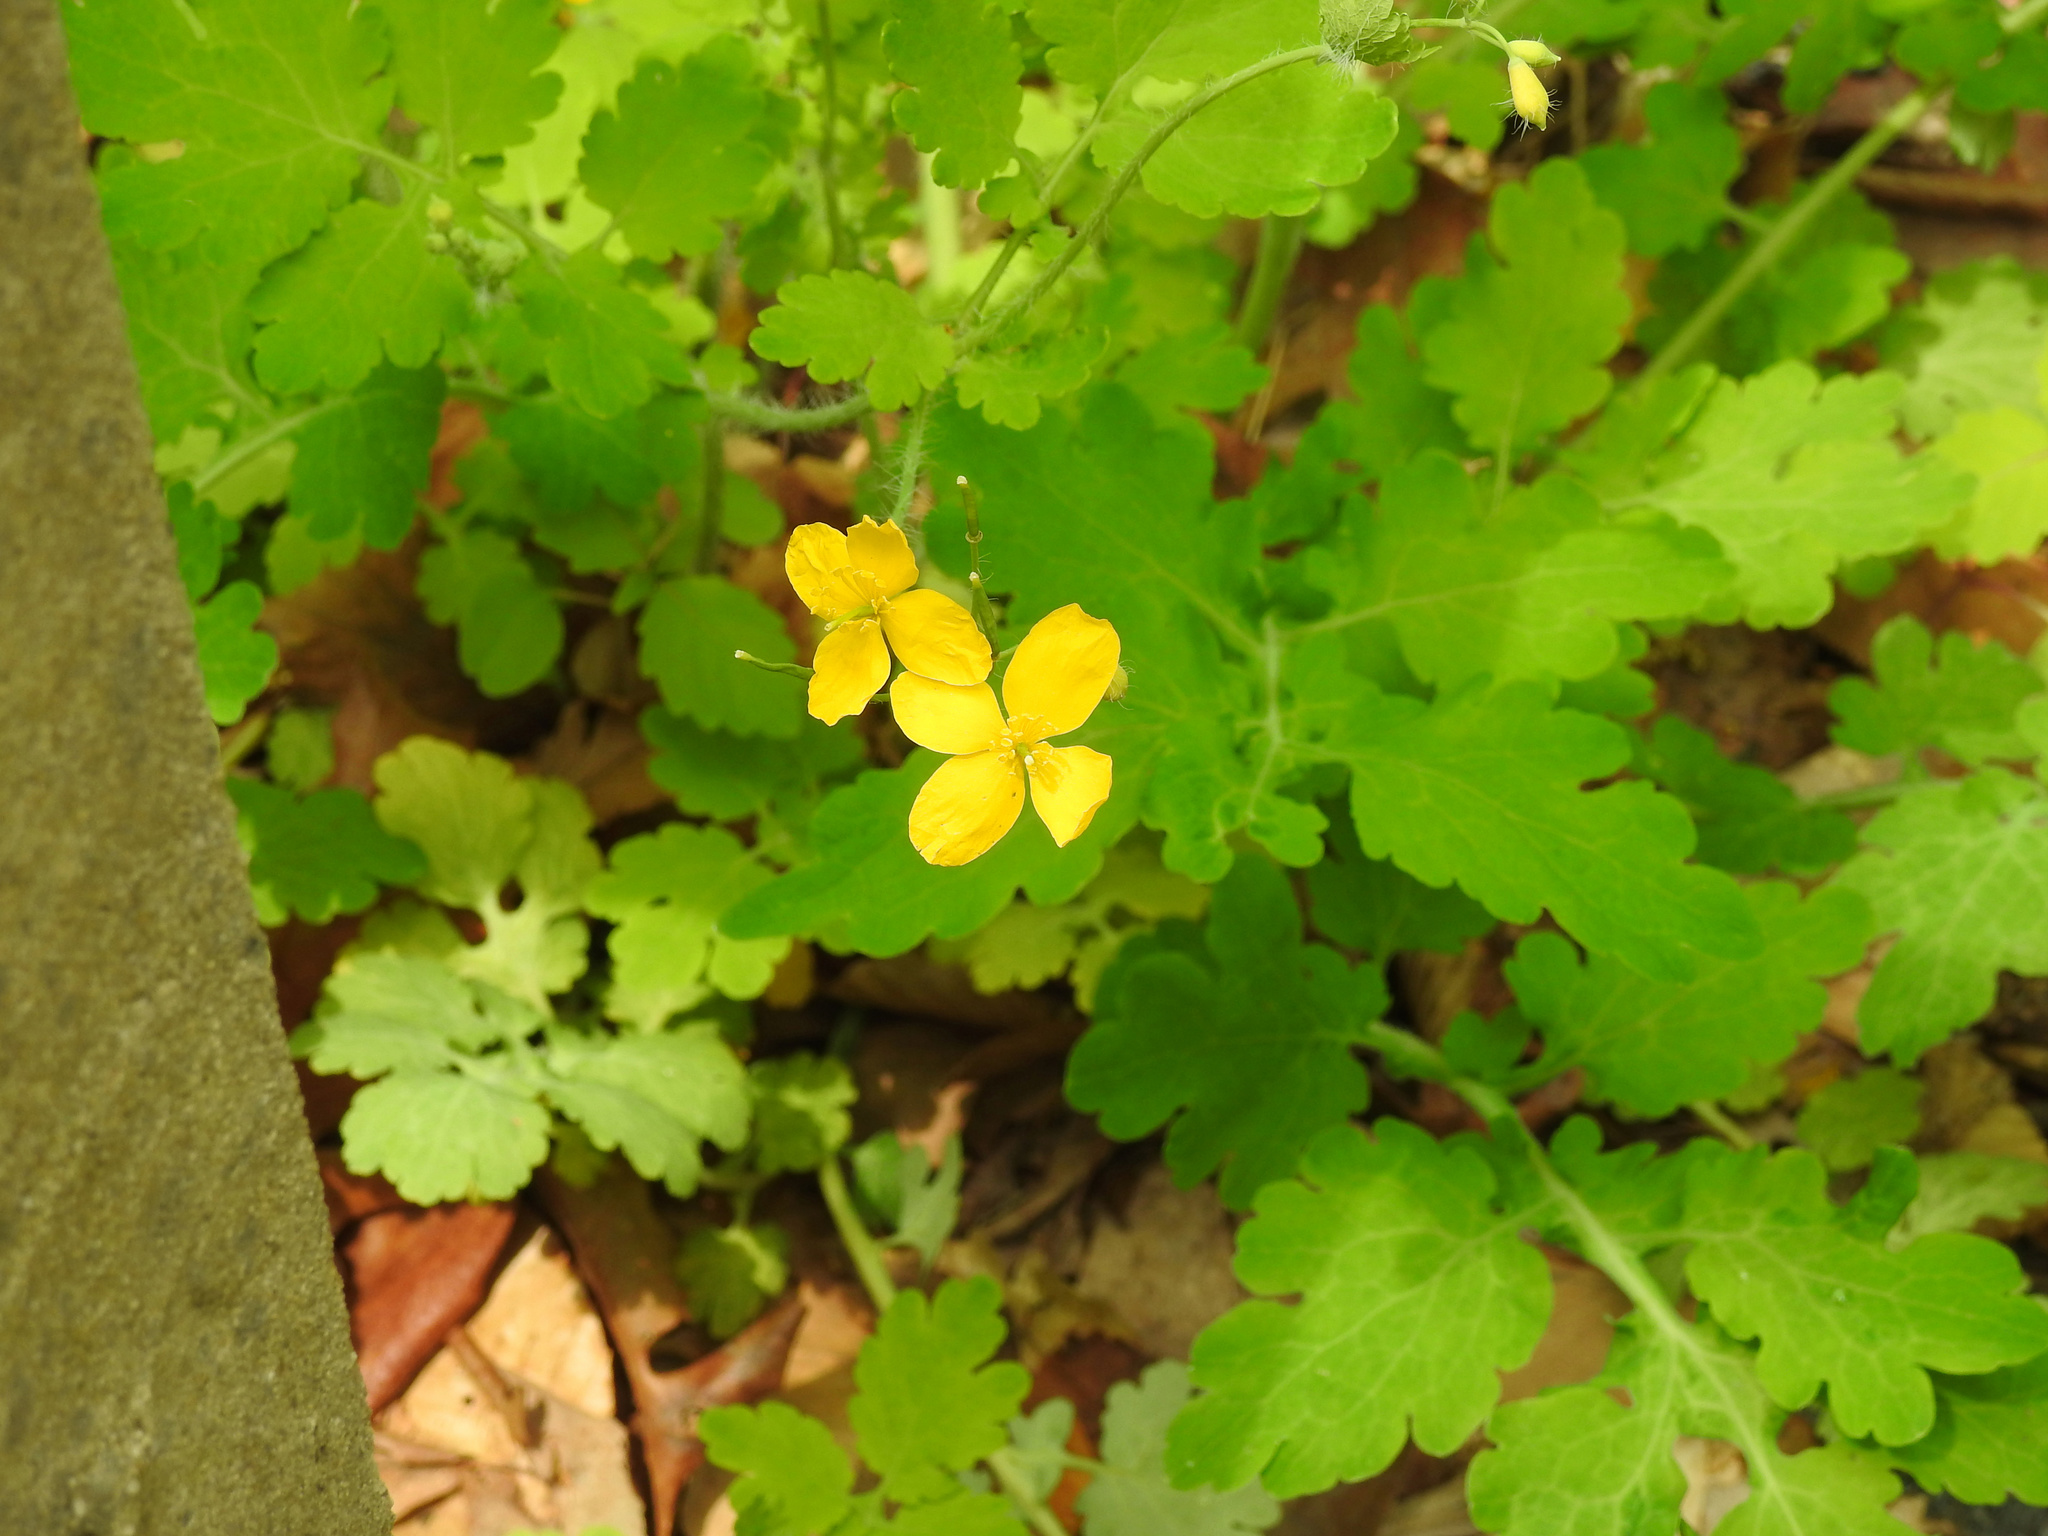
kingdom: Plantae
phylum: Tracheophyta
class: Magnoliopsida
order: Ranunculales
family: Papaveraceae
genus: Chelidonium
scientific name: Chelidonium majus
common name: Greater celandine
